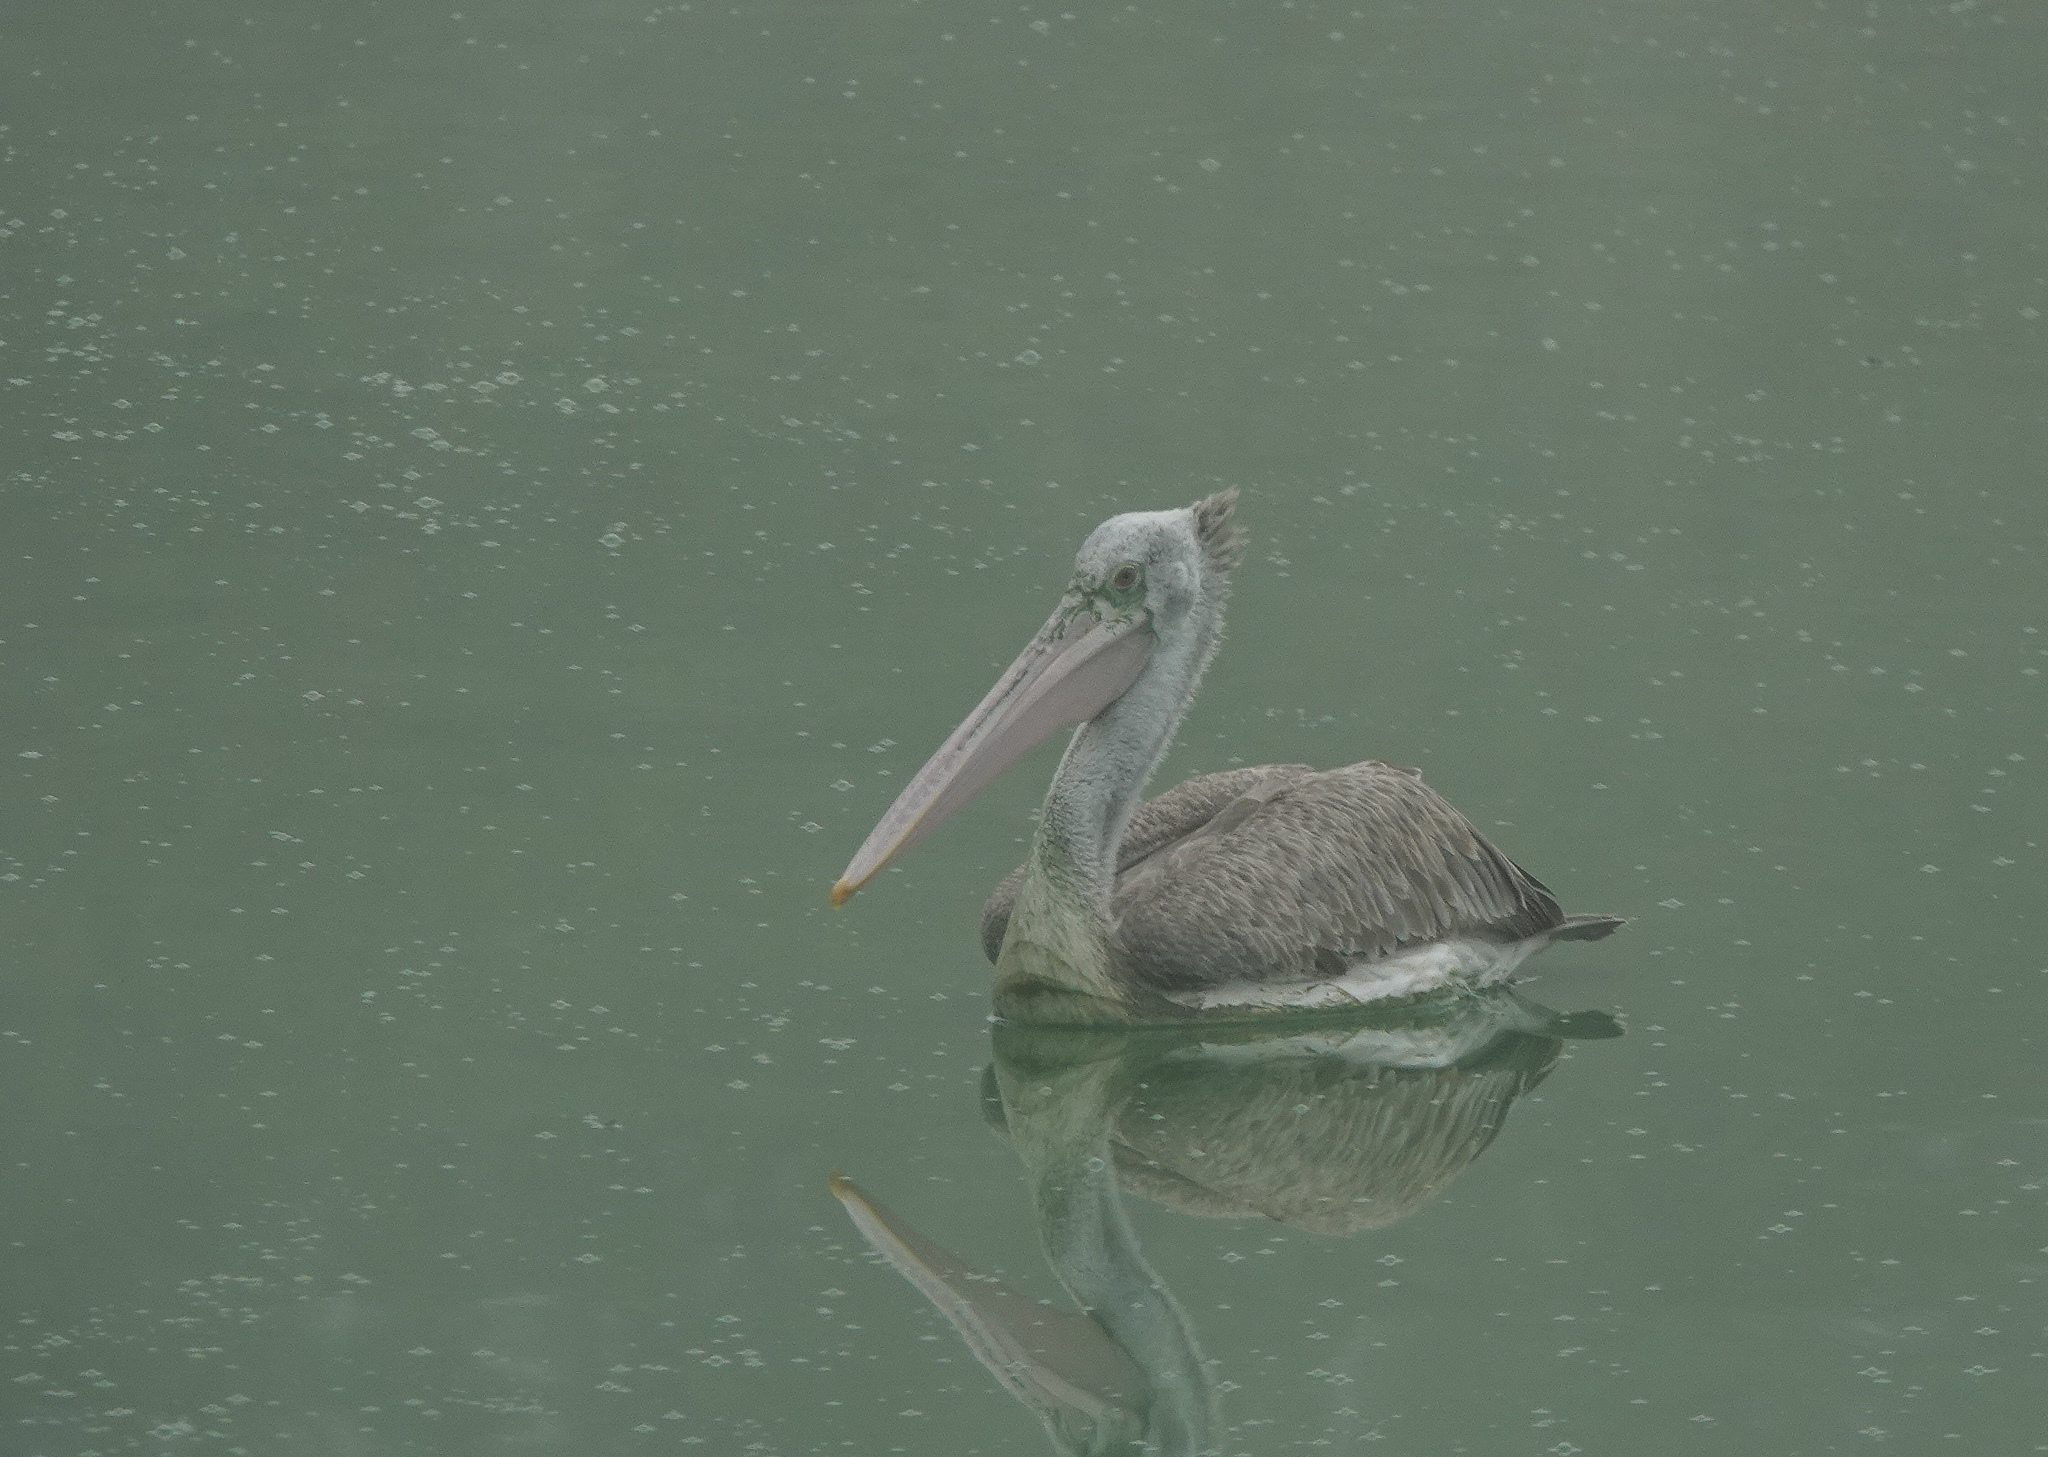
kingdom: Animalia
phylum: Chordata
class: Aves
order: Pelecaniformes
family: Pelecanidae
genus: Pelecanus
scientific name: Pelecanus philippensis
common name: Spot-billed pelican
